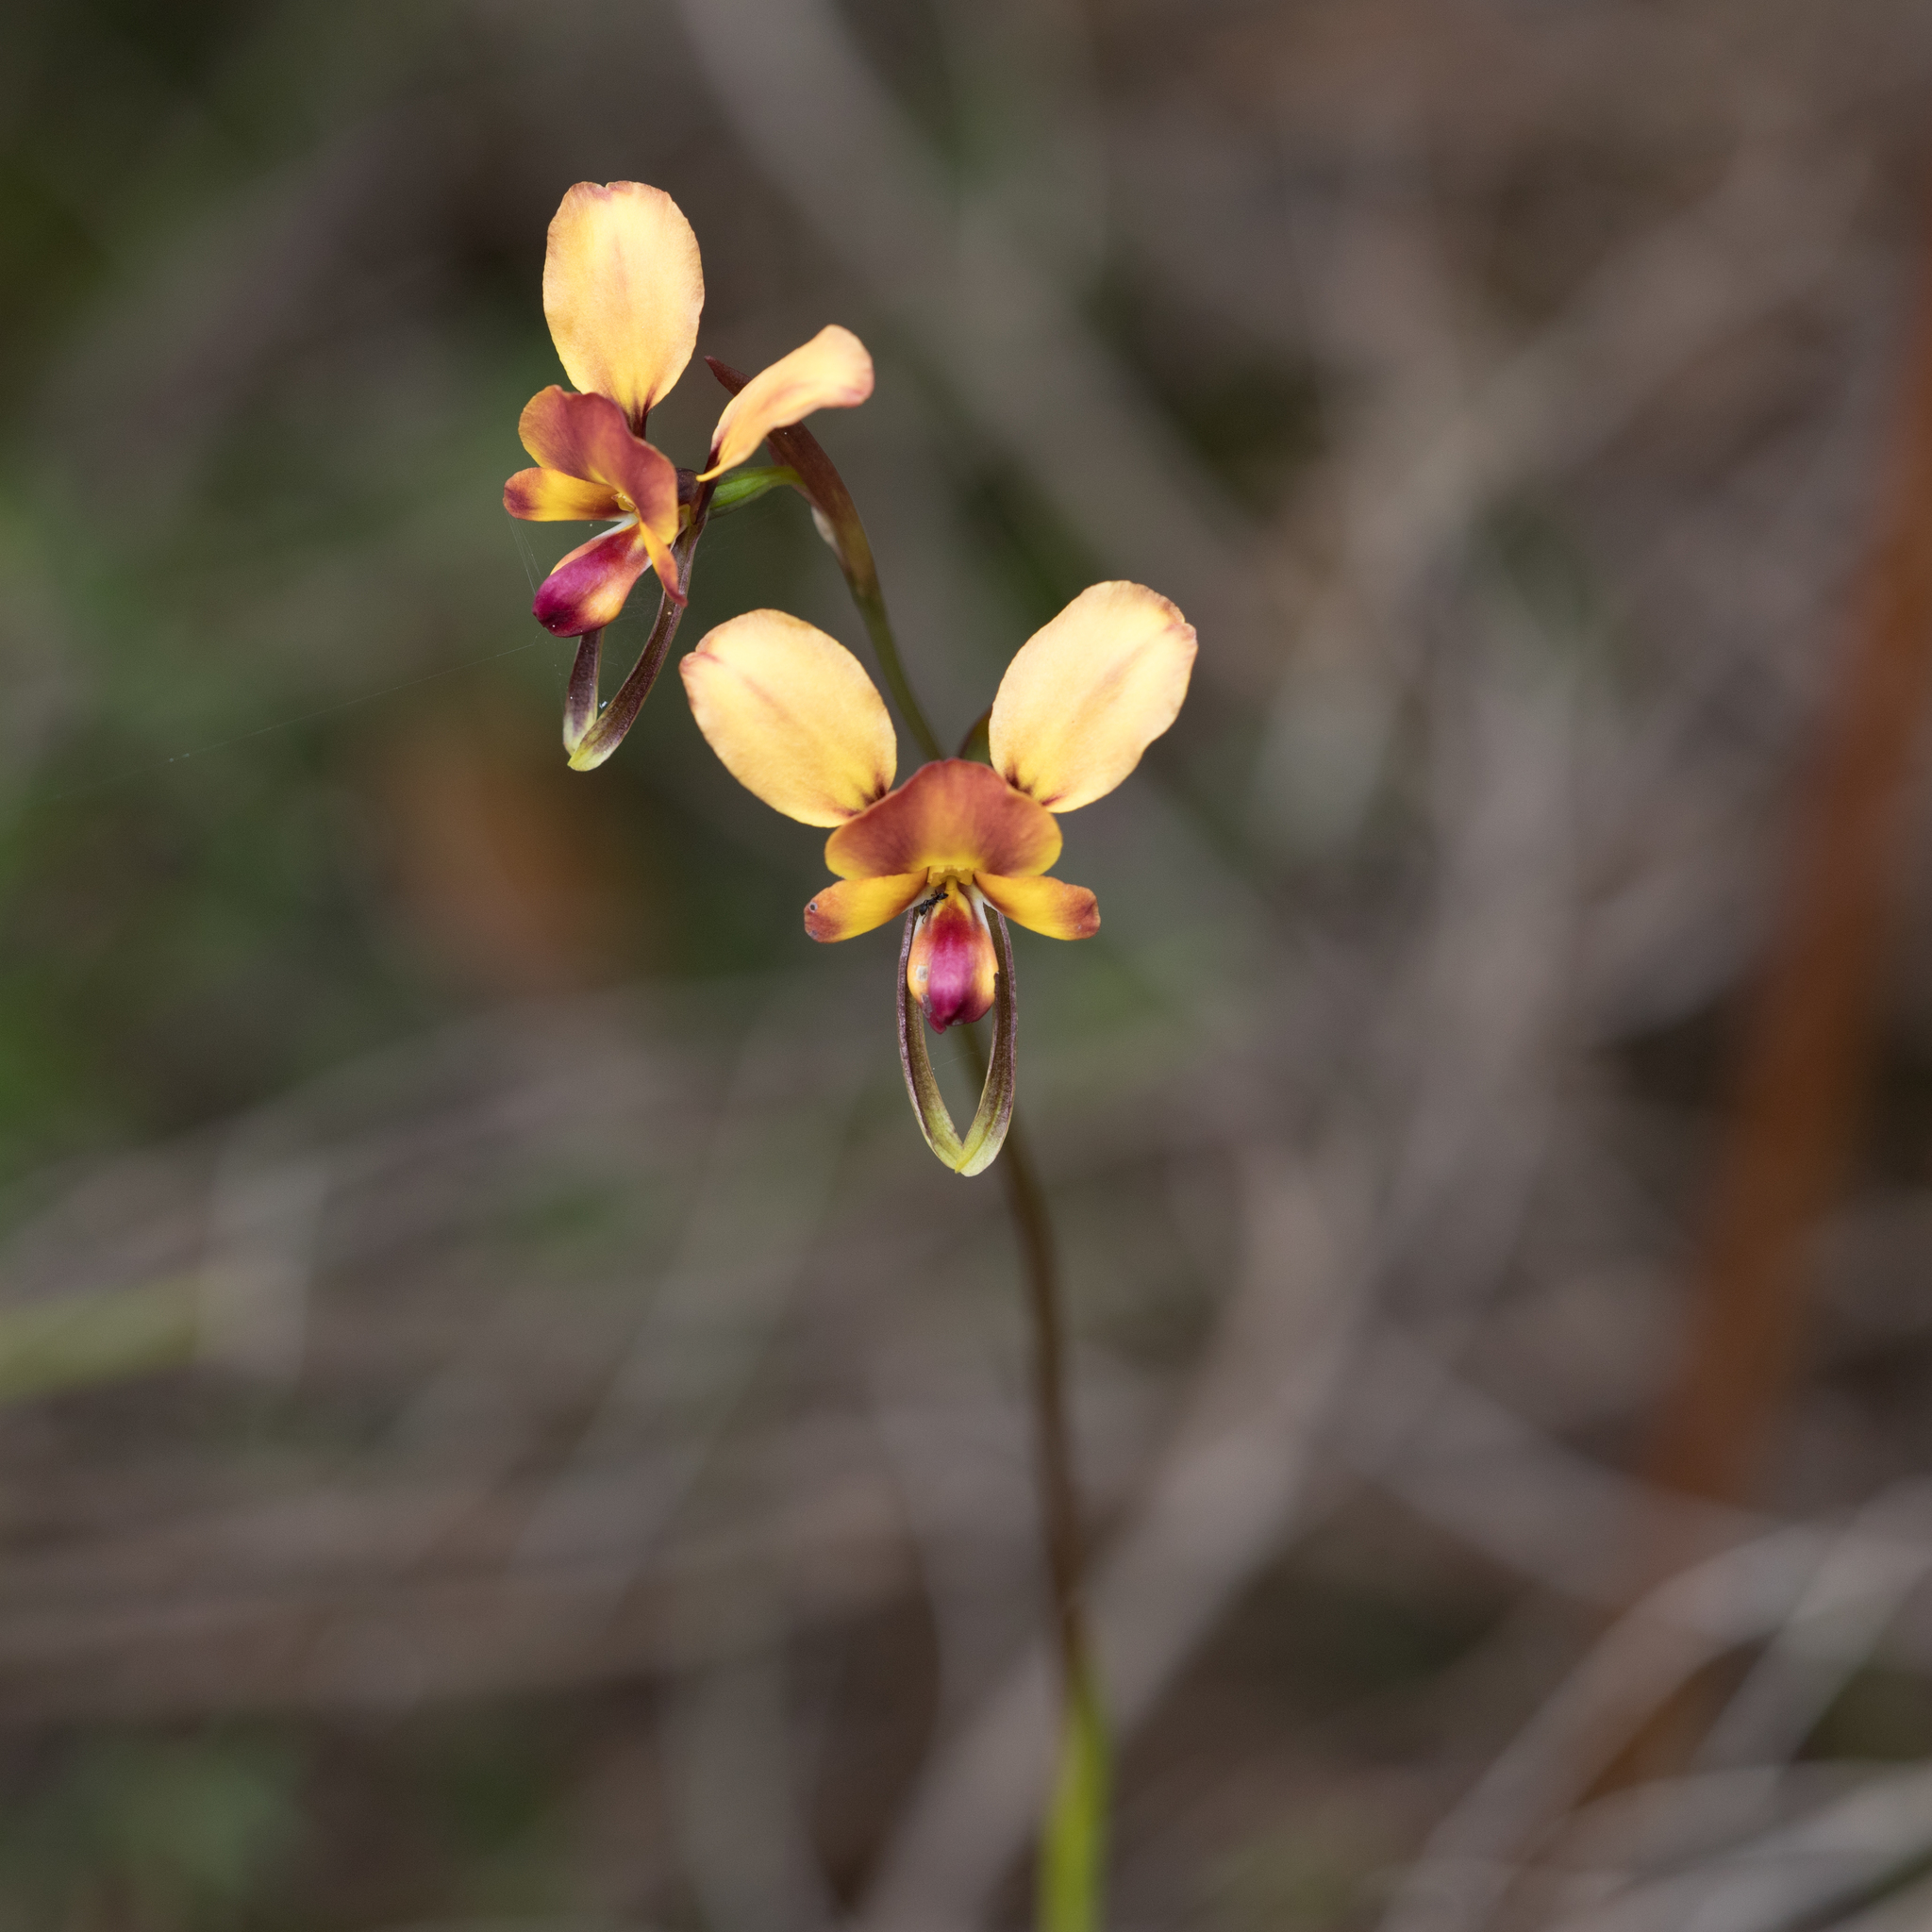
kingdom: Plantae
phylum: Tracheophyta
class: Liliopsida
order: Asparagales
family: Orchidaceae
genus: Diuris
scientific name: Diuris orientis
